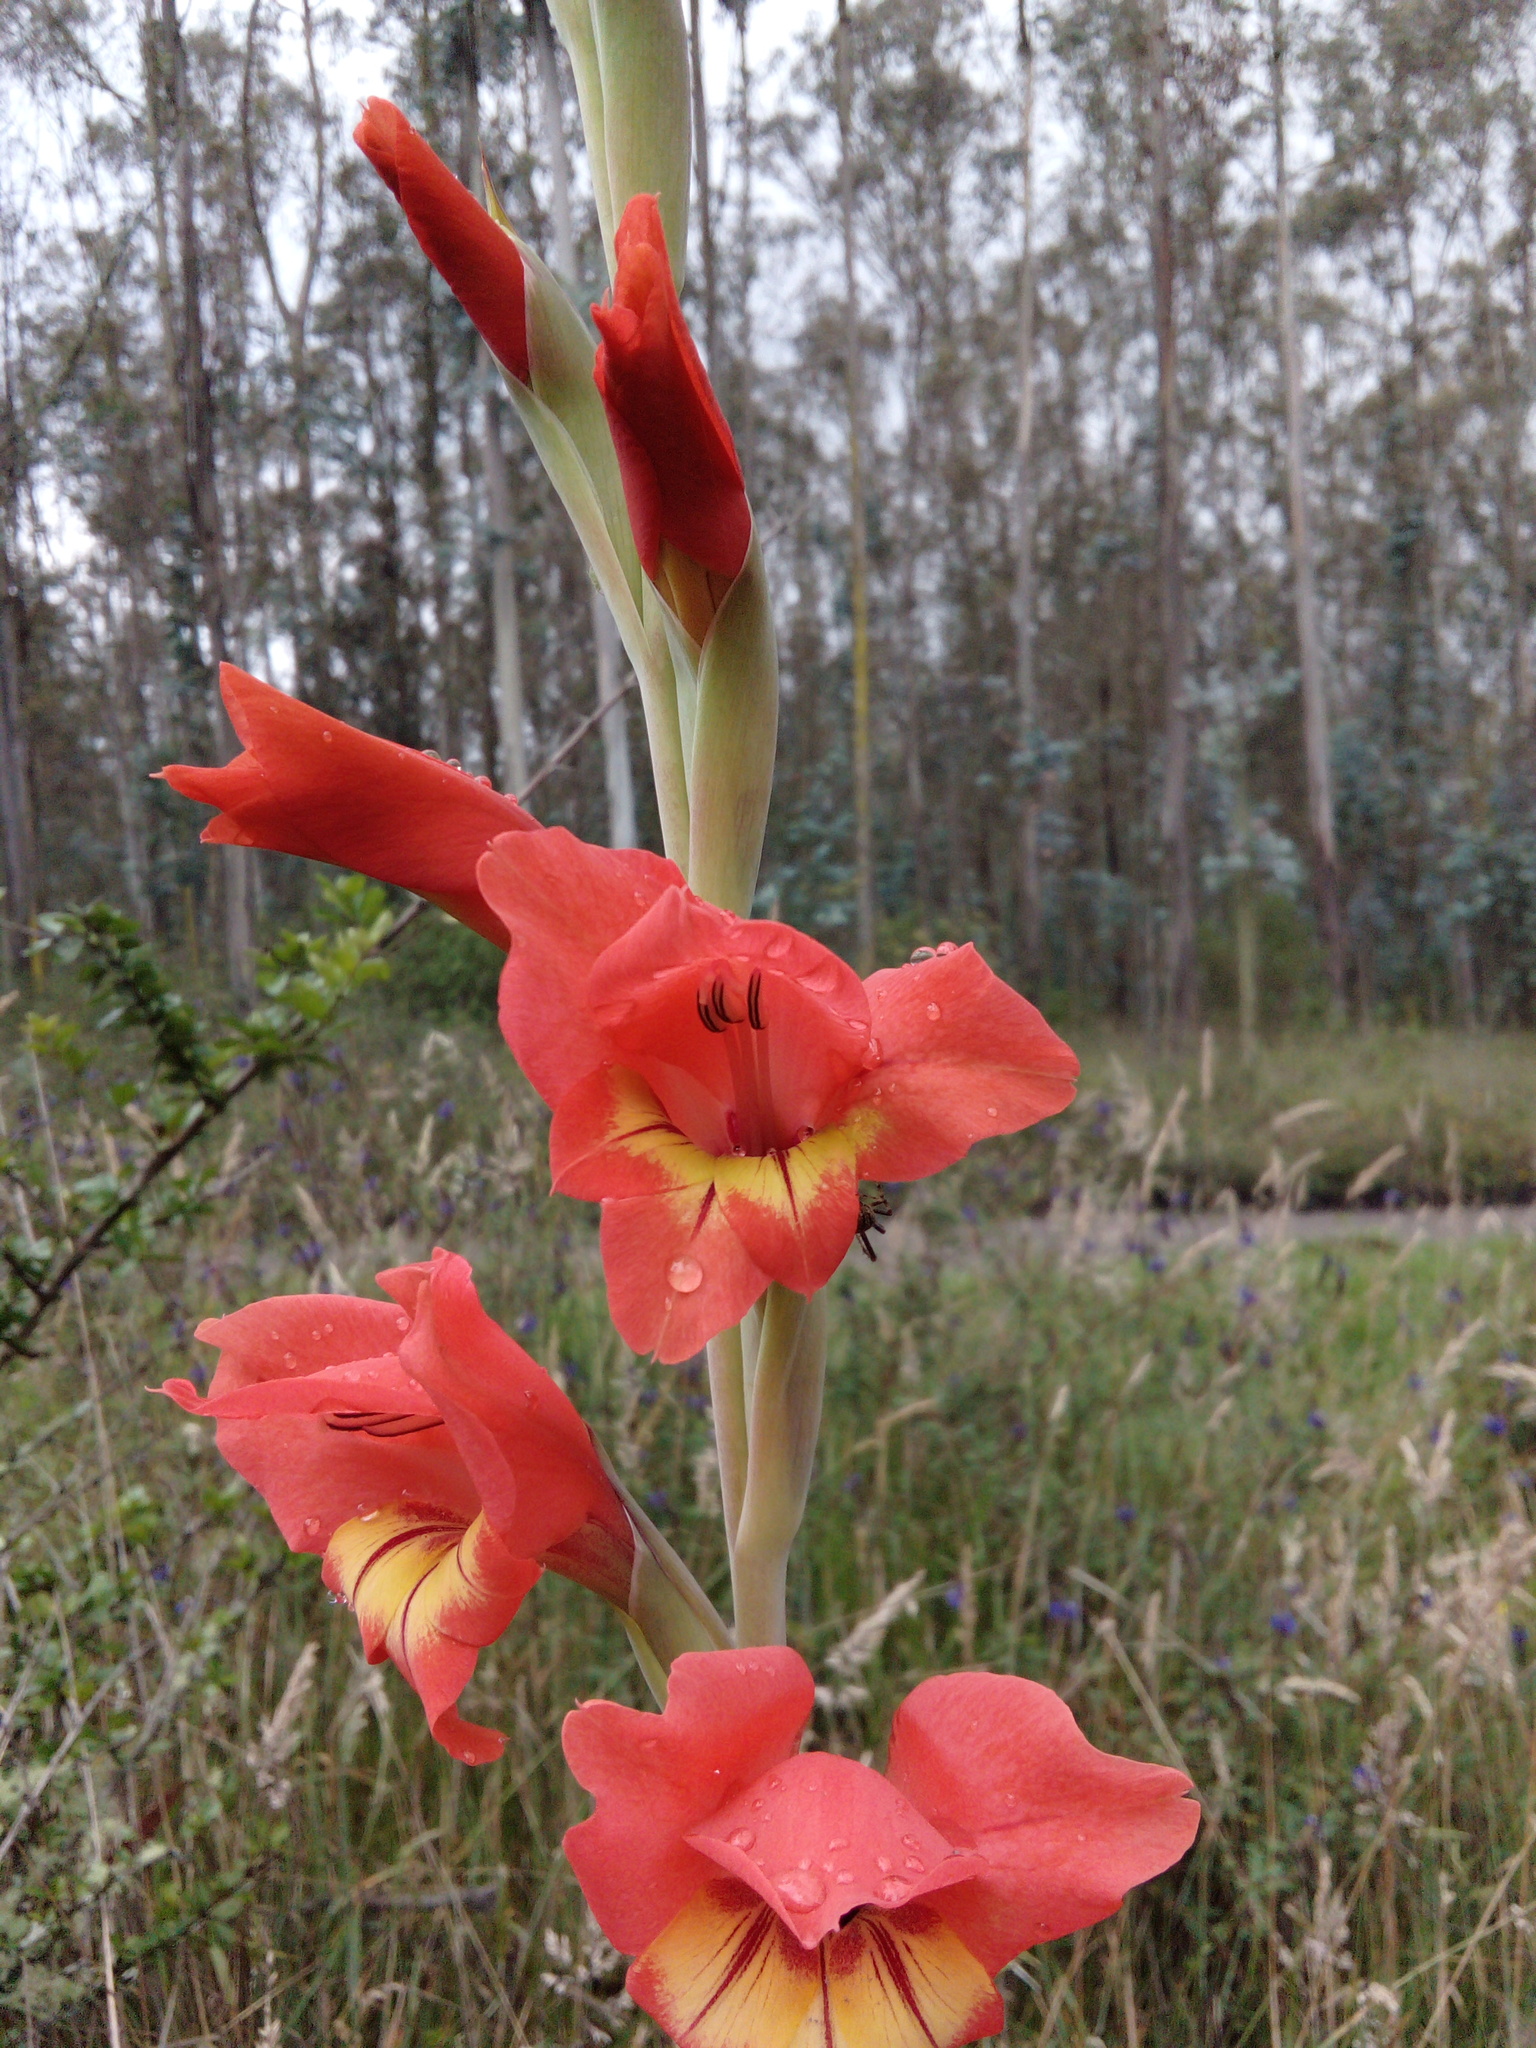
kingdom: Plantae
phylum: Tracheophyta
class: Liliopsida
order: Asparagales
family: Iridaceae
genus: Gladiolus
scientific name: Gladiolus dalenii
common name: Cornflag
